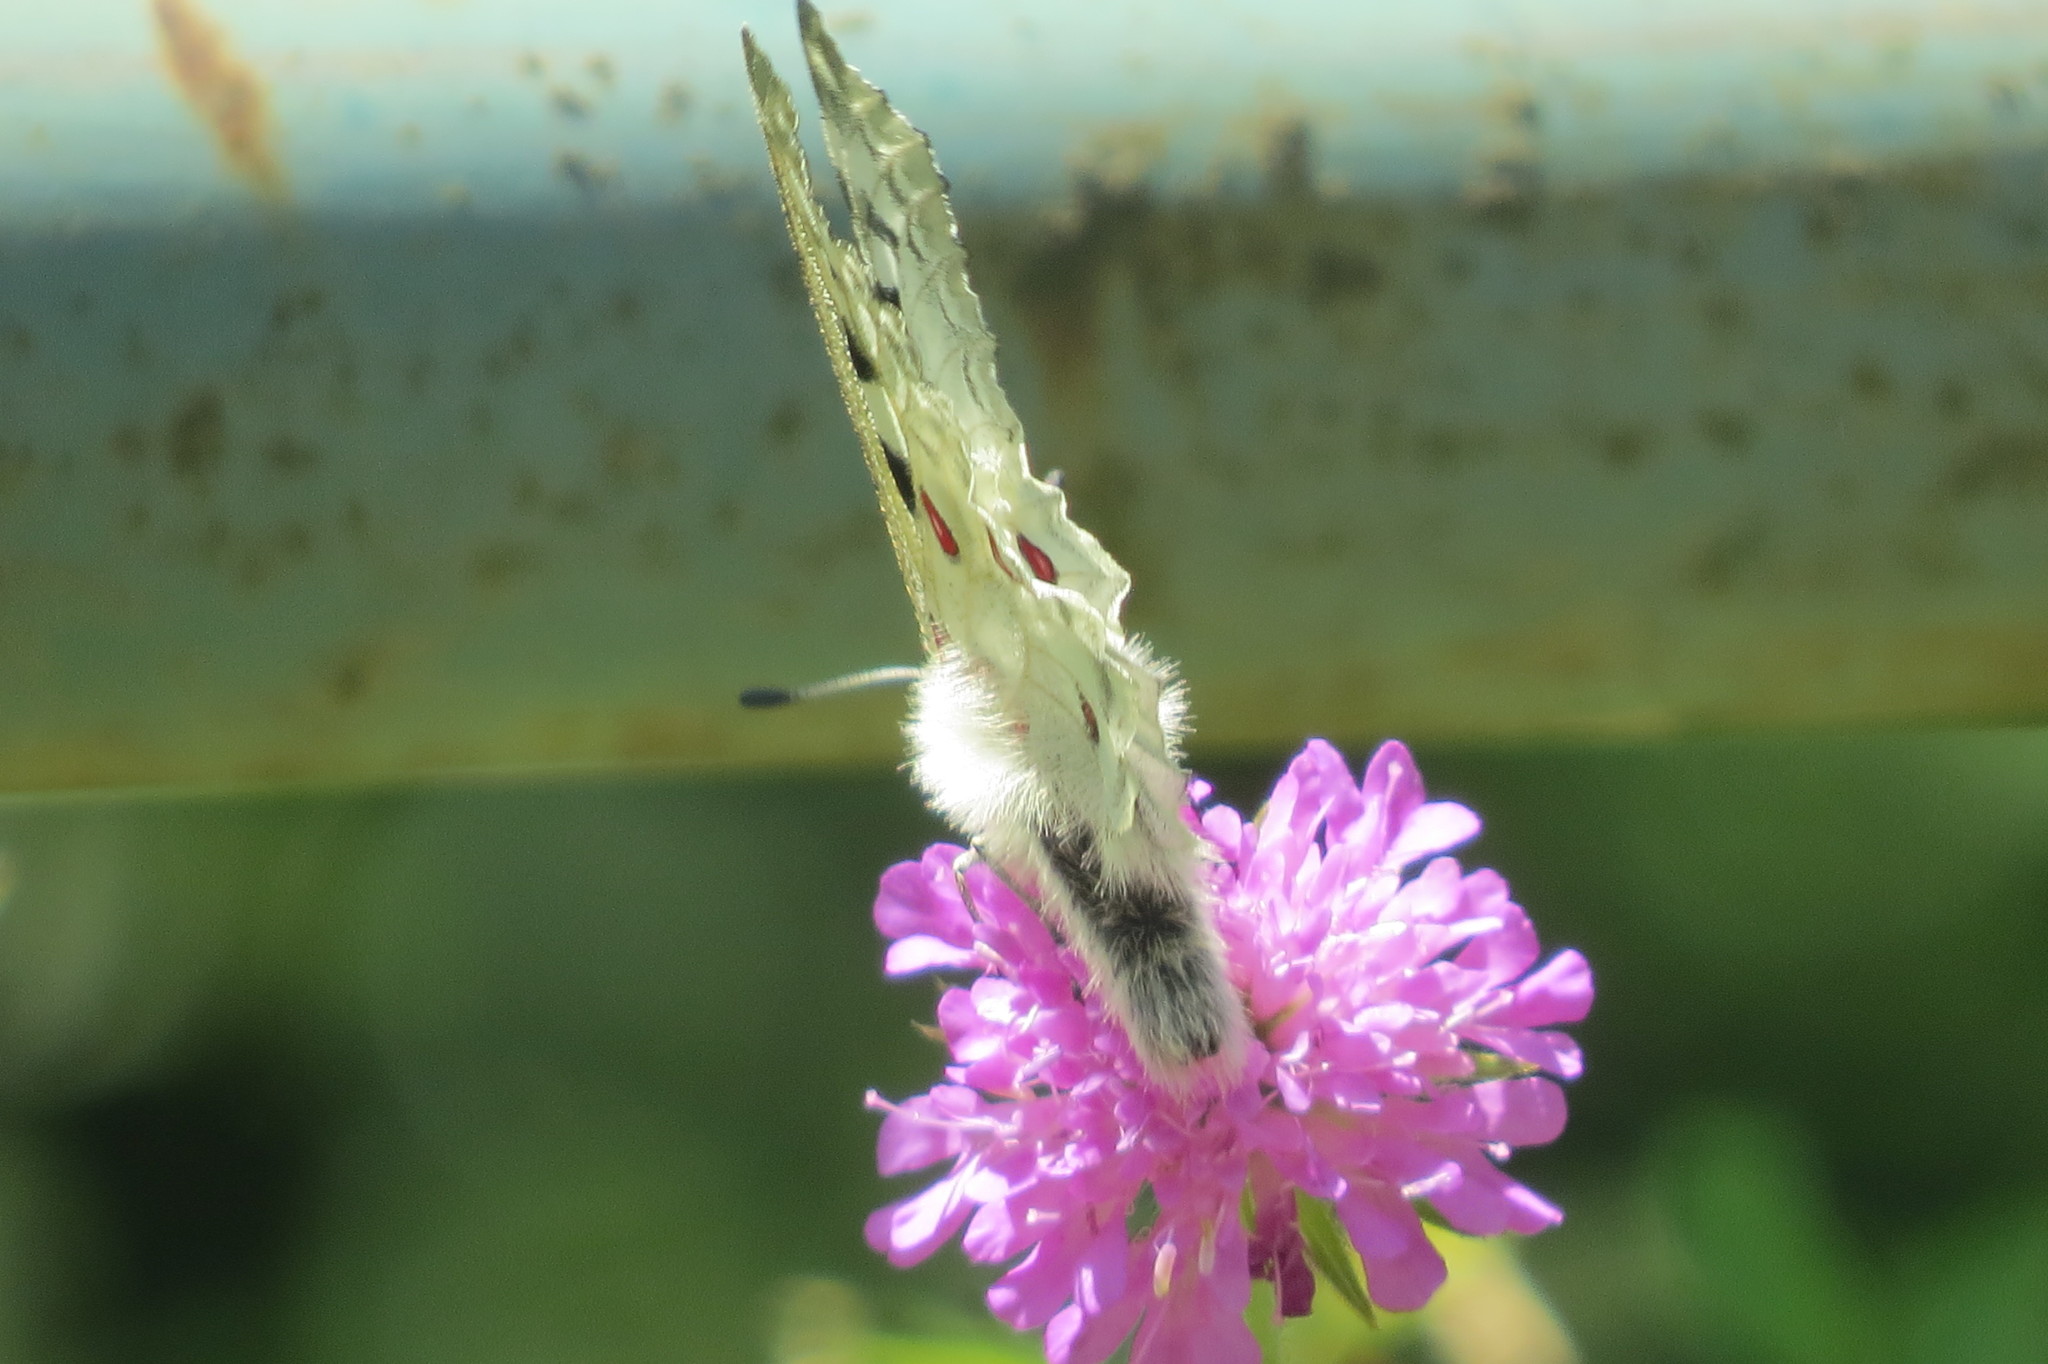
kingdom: Animalia
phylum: Arthropoda
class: Insecta
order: Lepidoptera
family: Papilionidae
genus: Parnassius
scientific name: Parnassius apollo
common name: Apollo
